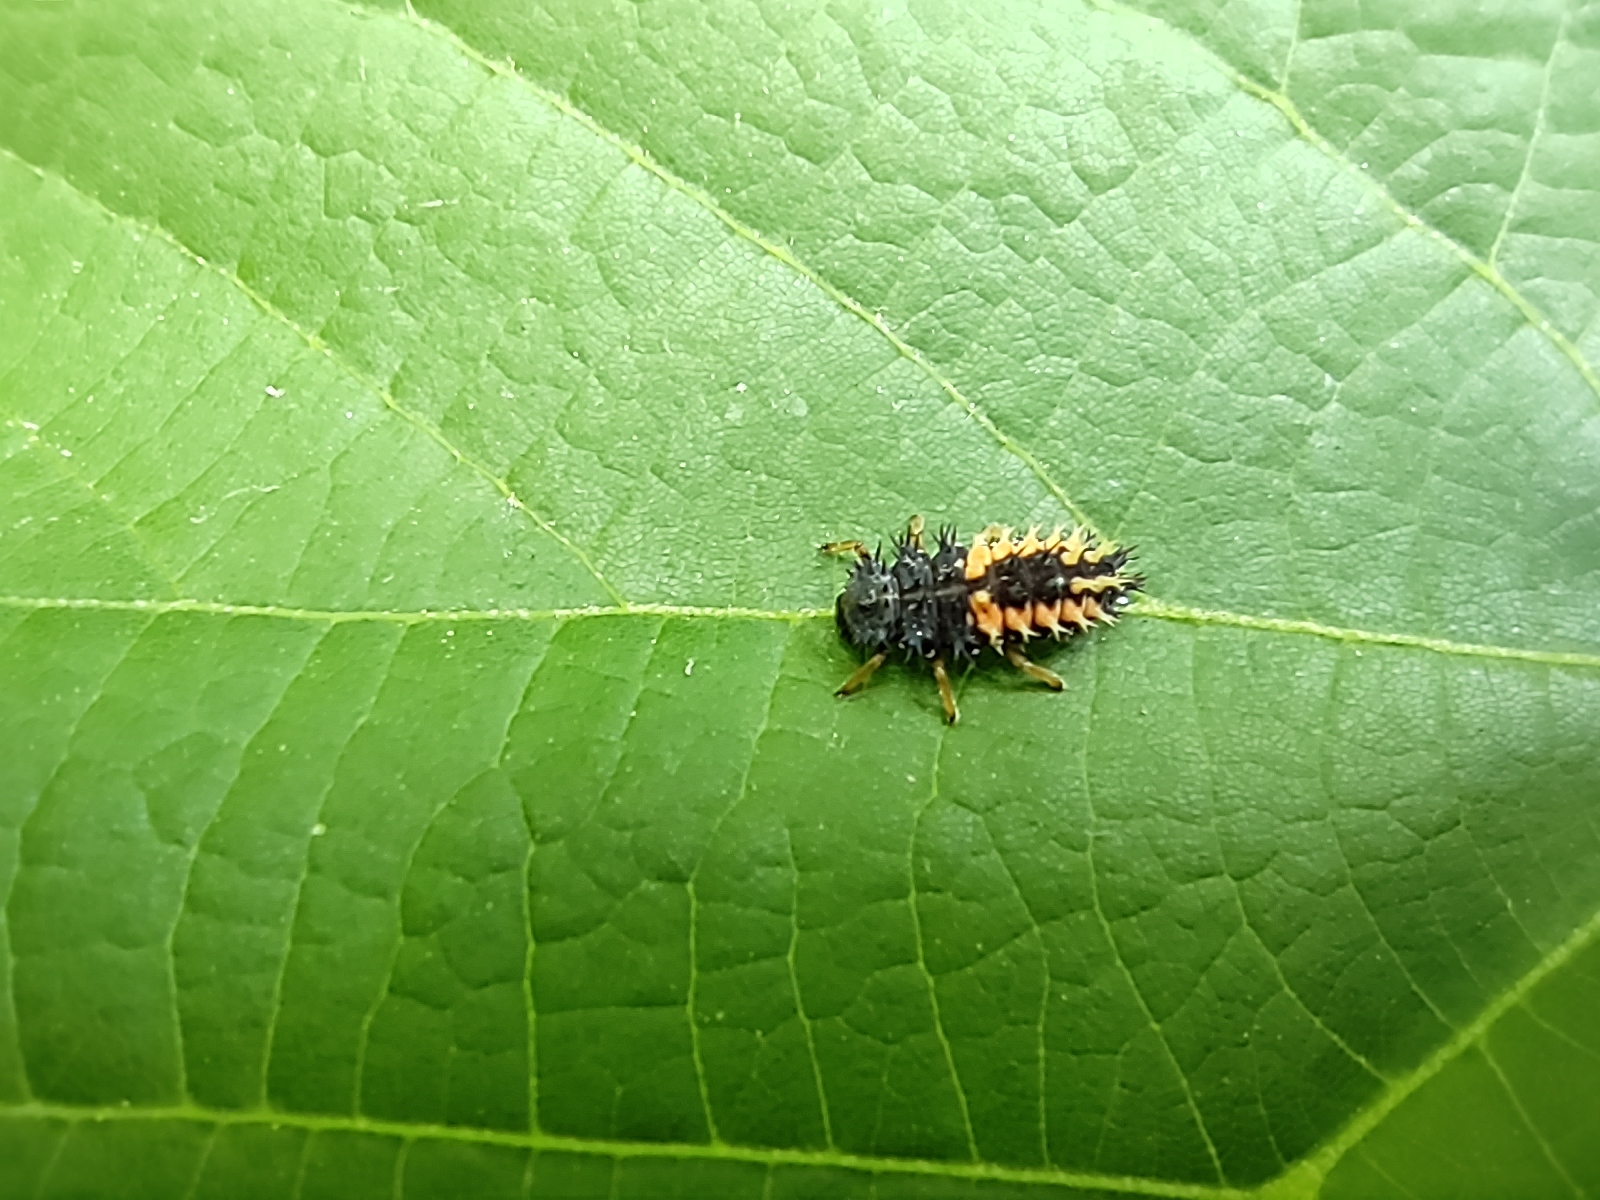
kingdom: Animalia
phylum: Arthropoda
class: Insecta
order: Coleoptera
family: Coccinellidae
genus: Harmonia
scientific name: Harmonia axyridis
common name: Harlequin ladybird
